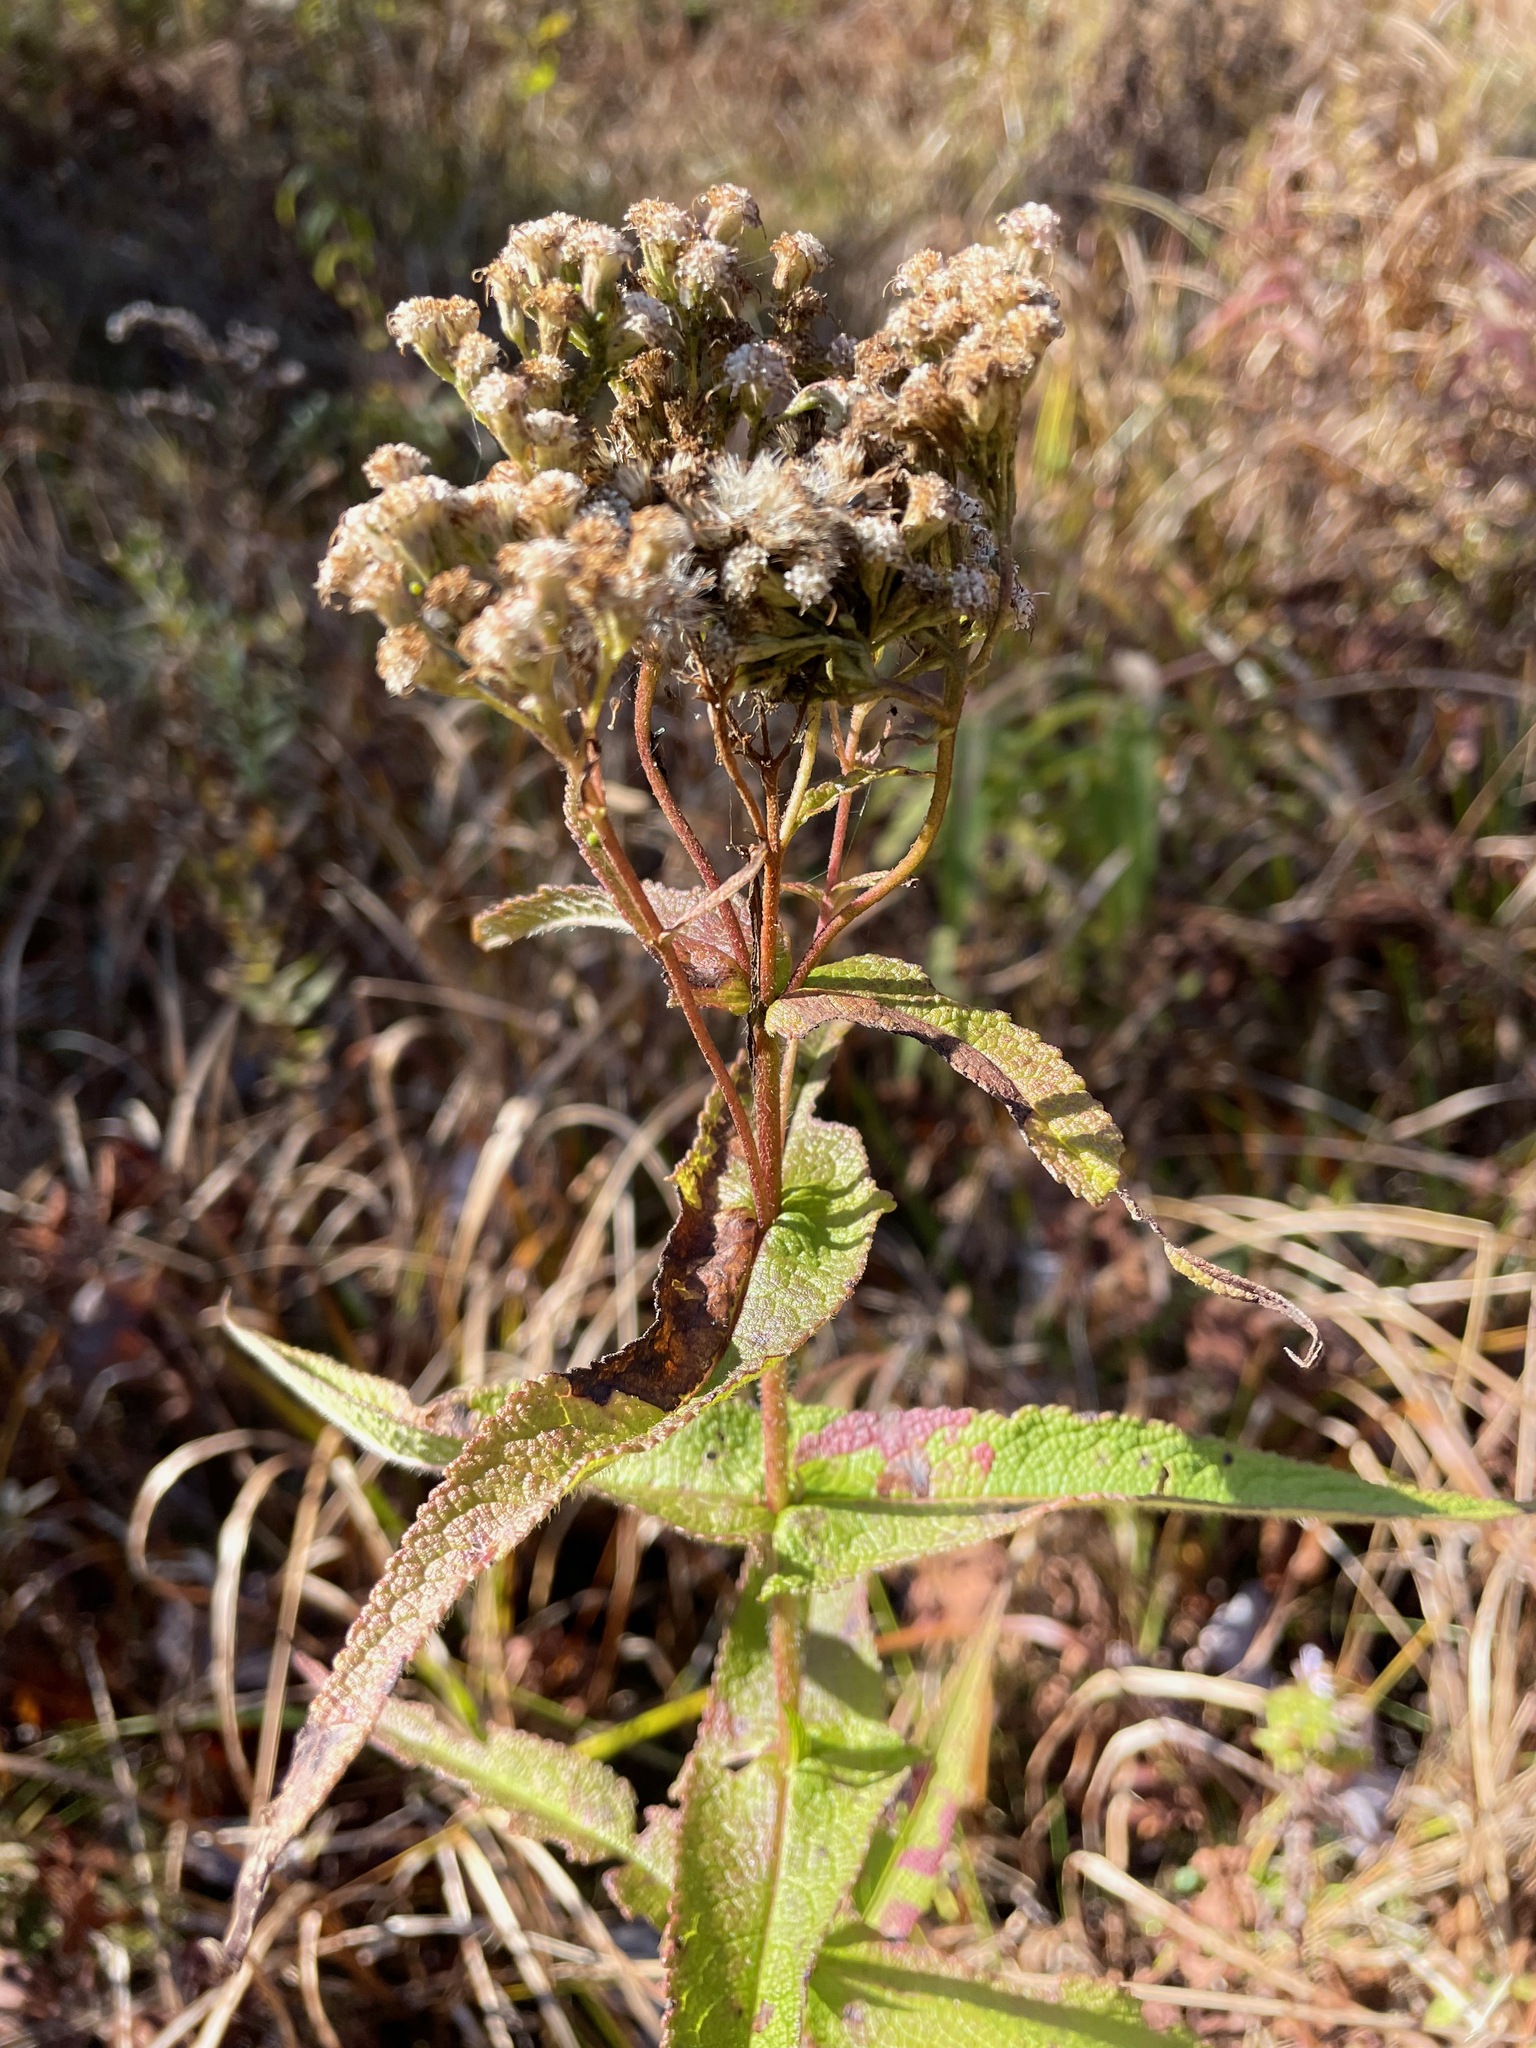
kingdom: Plantae
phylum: Tracheophyta
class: Magnoliopsida
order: Asterales
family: Asteraceae
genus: Eupatorium
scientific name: Eupatorium perfoliatum
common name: Boneset
